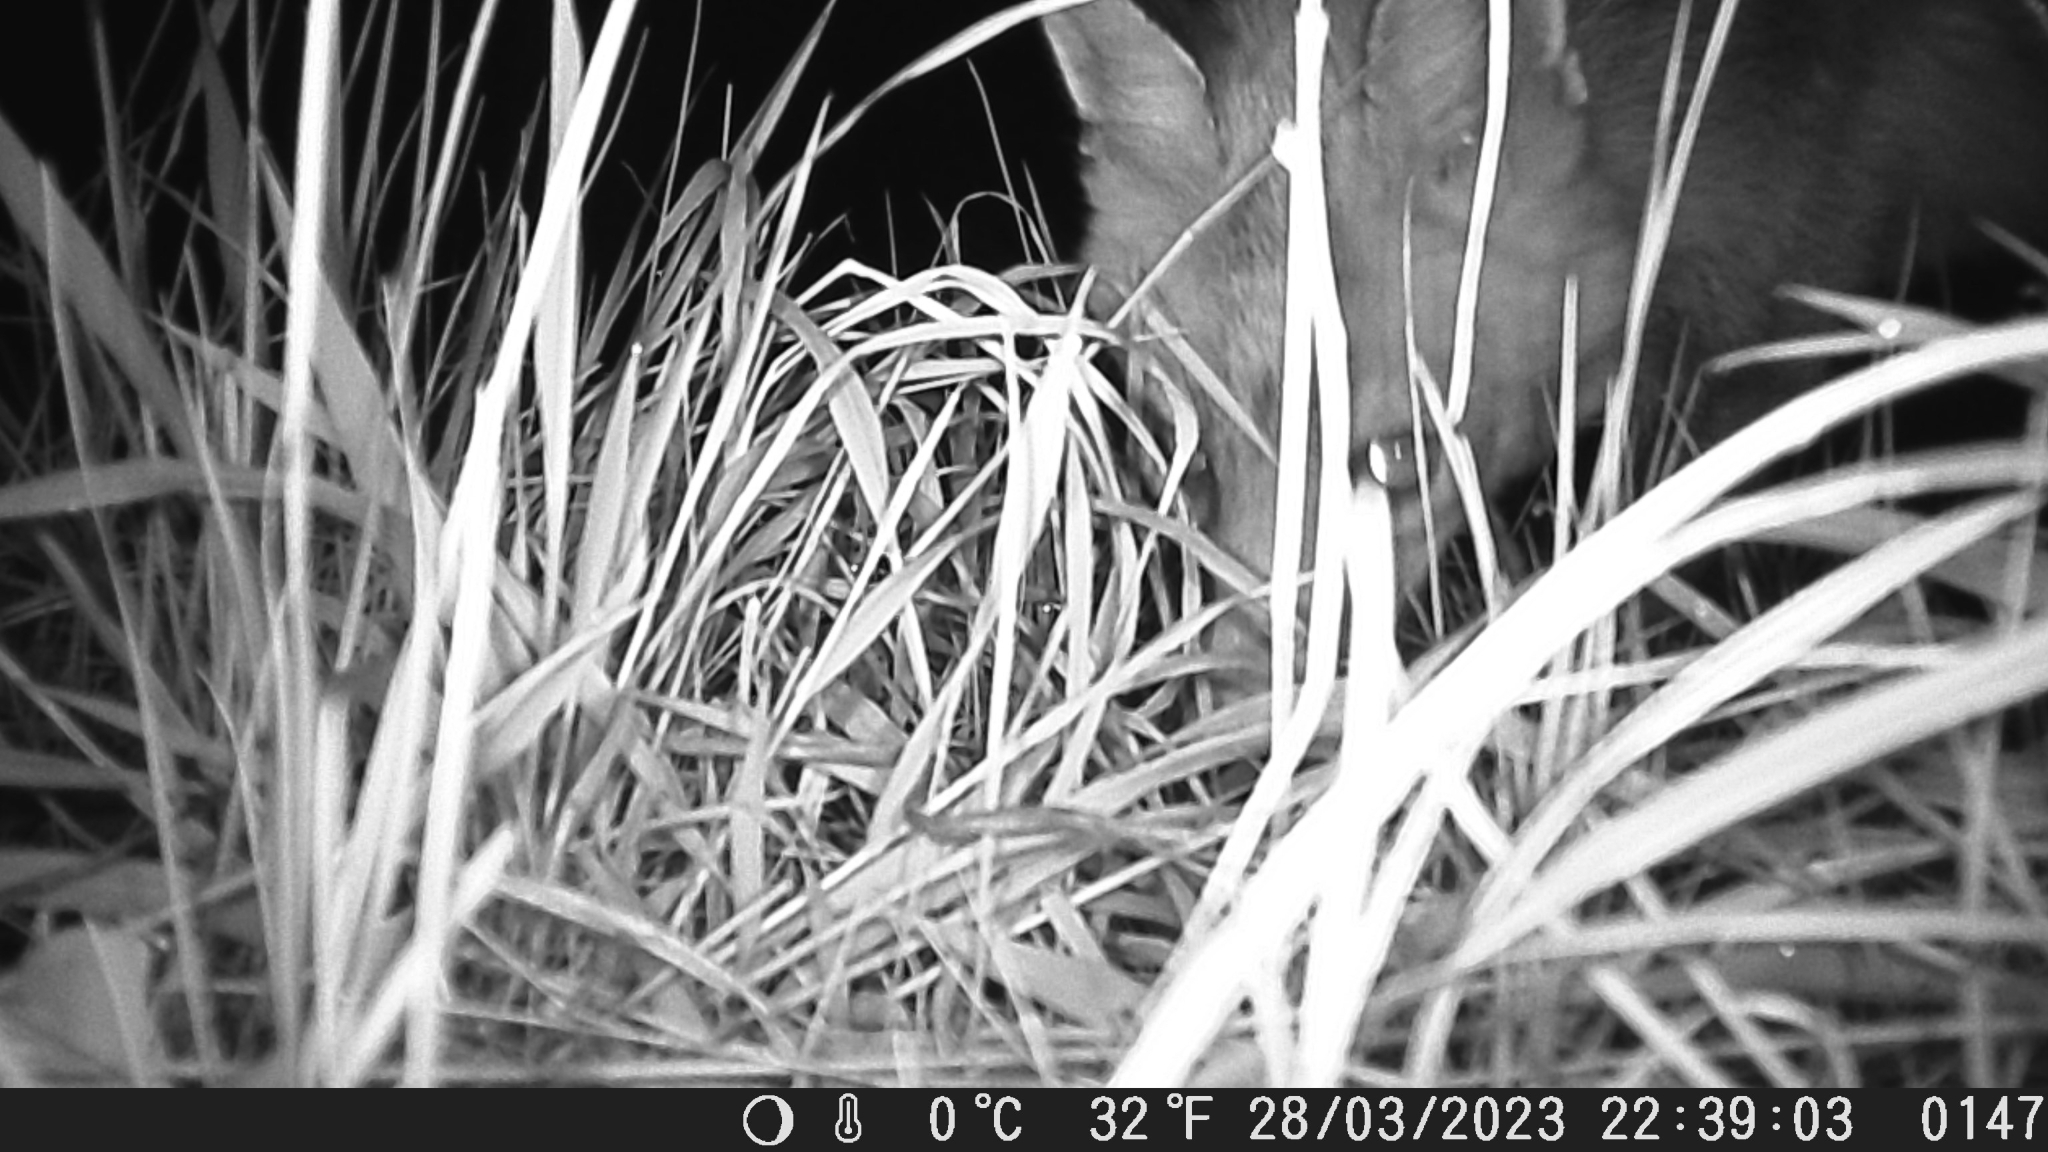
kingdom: Animalia
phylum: Chordata
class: Mammalia
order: Carnivora
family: Canidae
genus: Vulpes
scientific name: Vulpes vulpes
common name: Red fox
